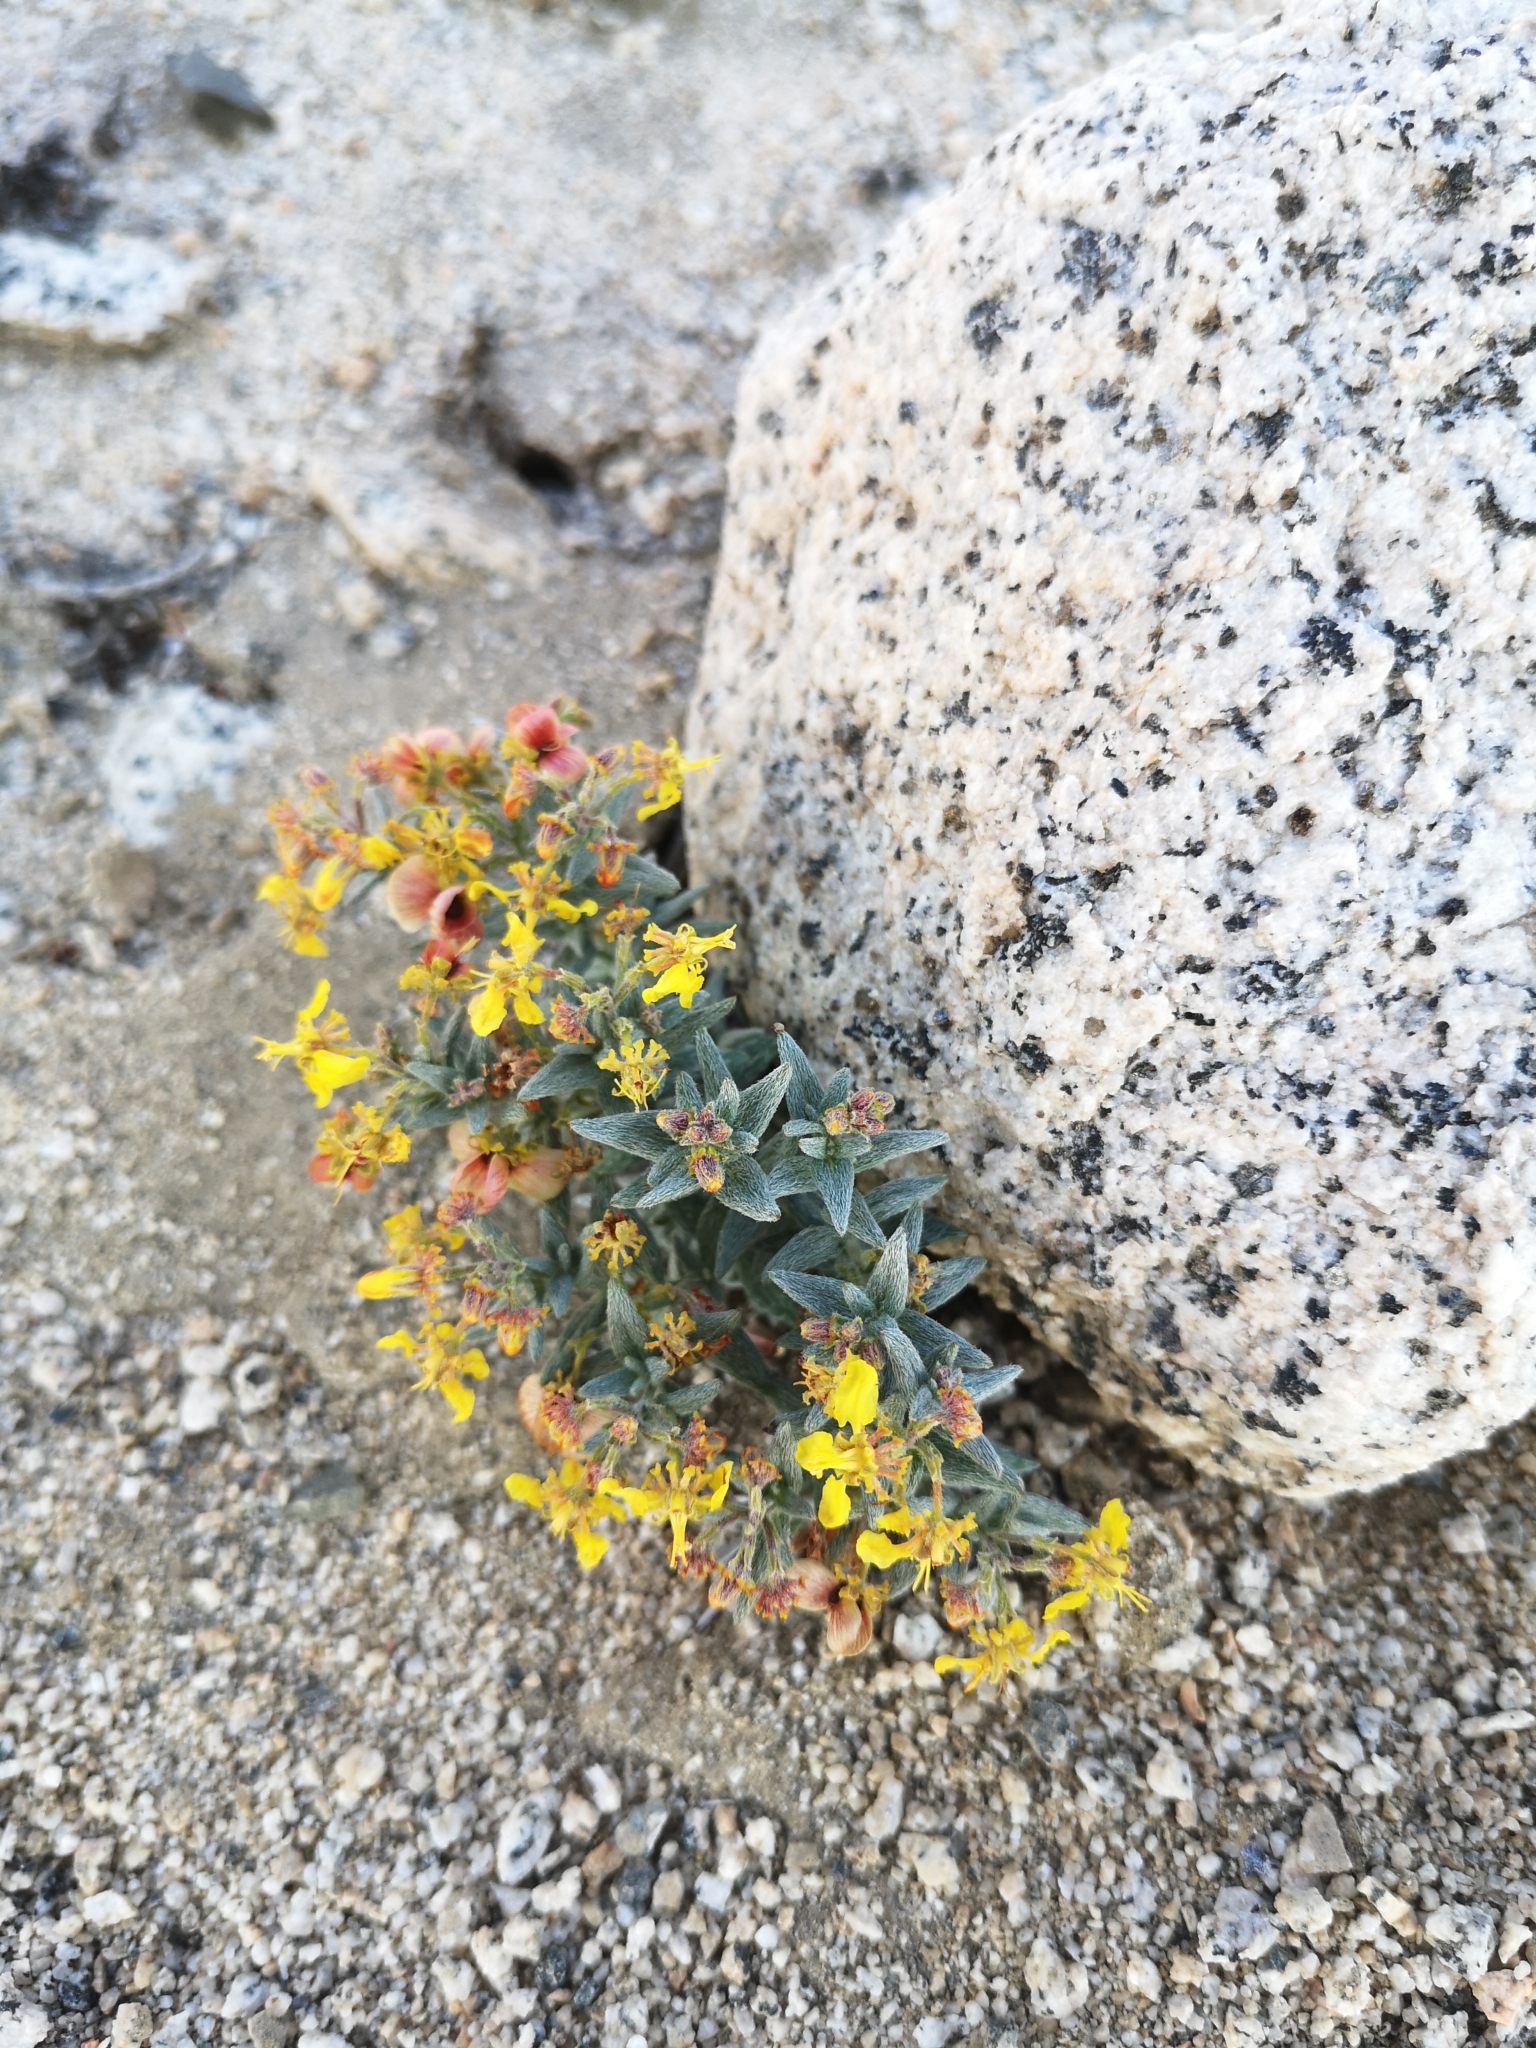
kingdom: Plantae
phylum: Tracheophyta
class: Magnoliopsida
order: Malpighiales
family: Malpighiaceae
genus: Dinemandra
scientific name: Dinemandra ericoides
